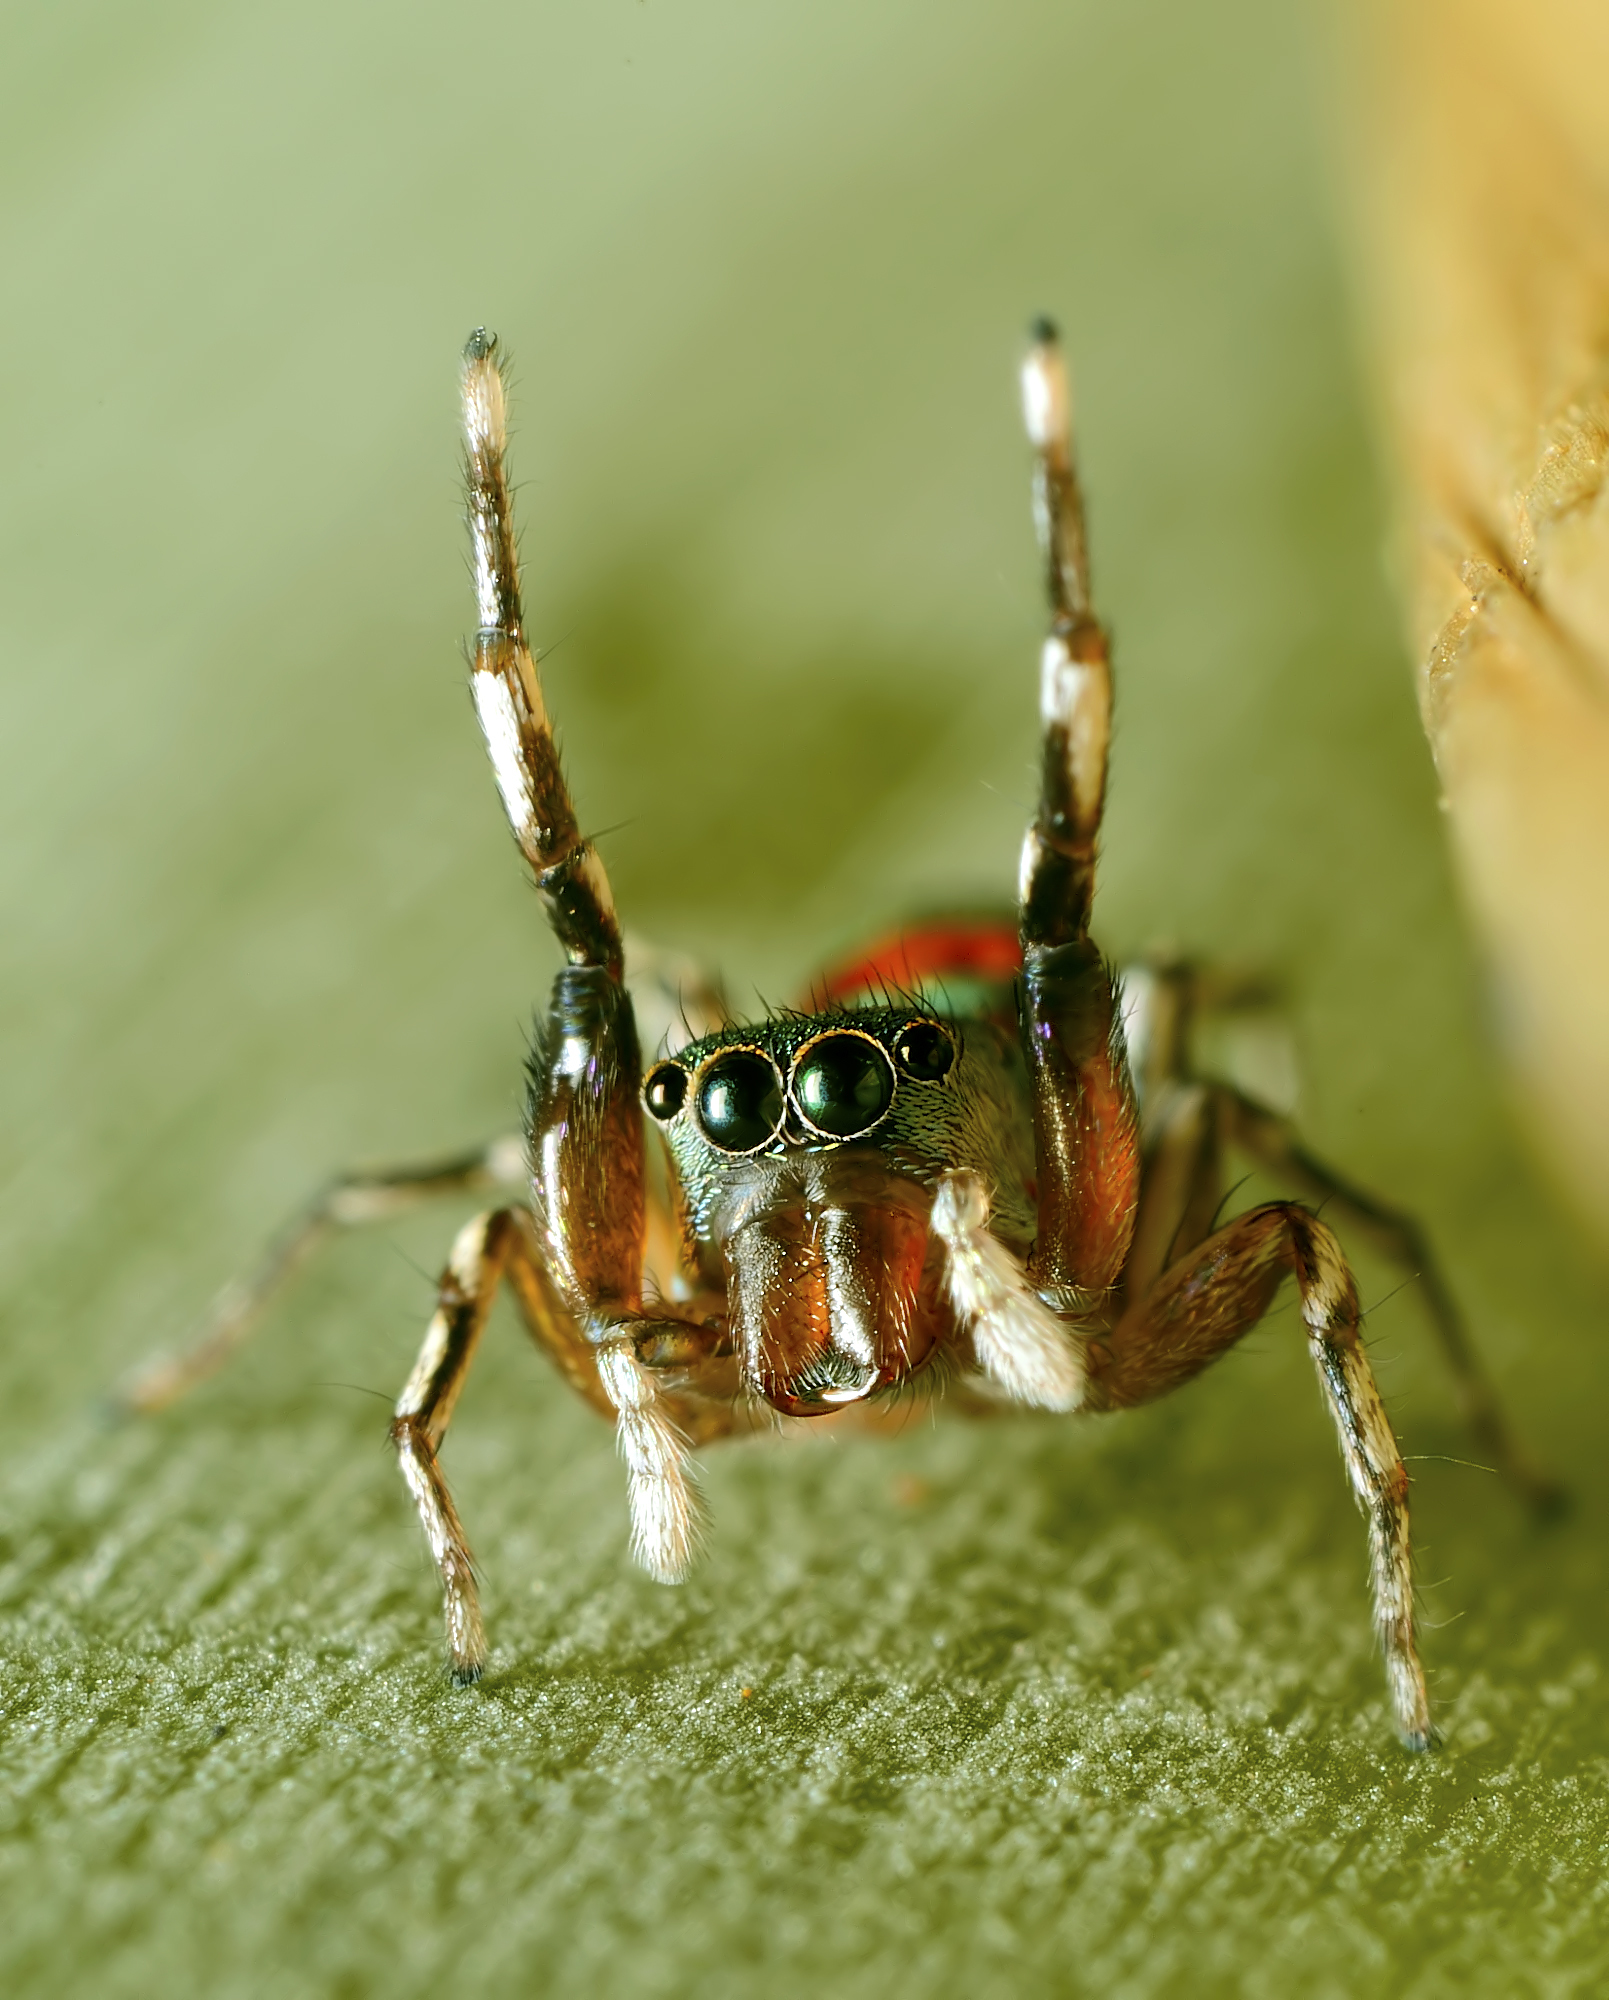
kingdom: Animalia
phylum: Arthropoda
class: Arachnida
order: Araneae
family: Salticidae
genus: Siler
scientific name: Siler semiglaucus
